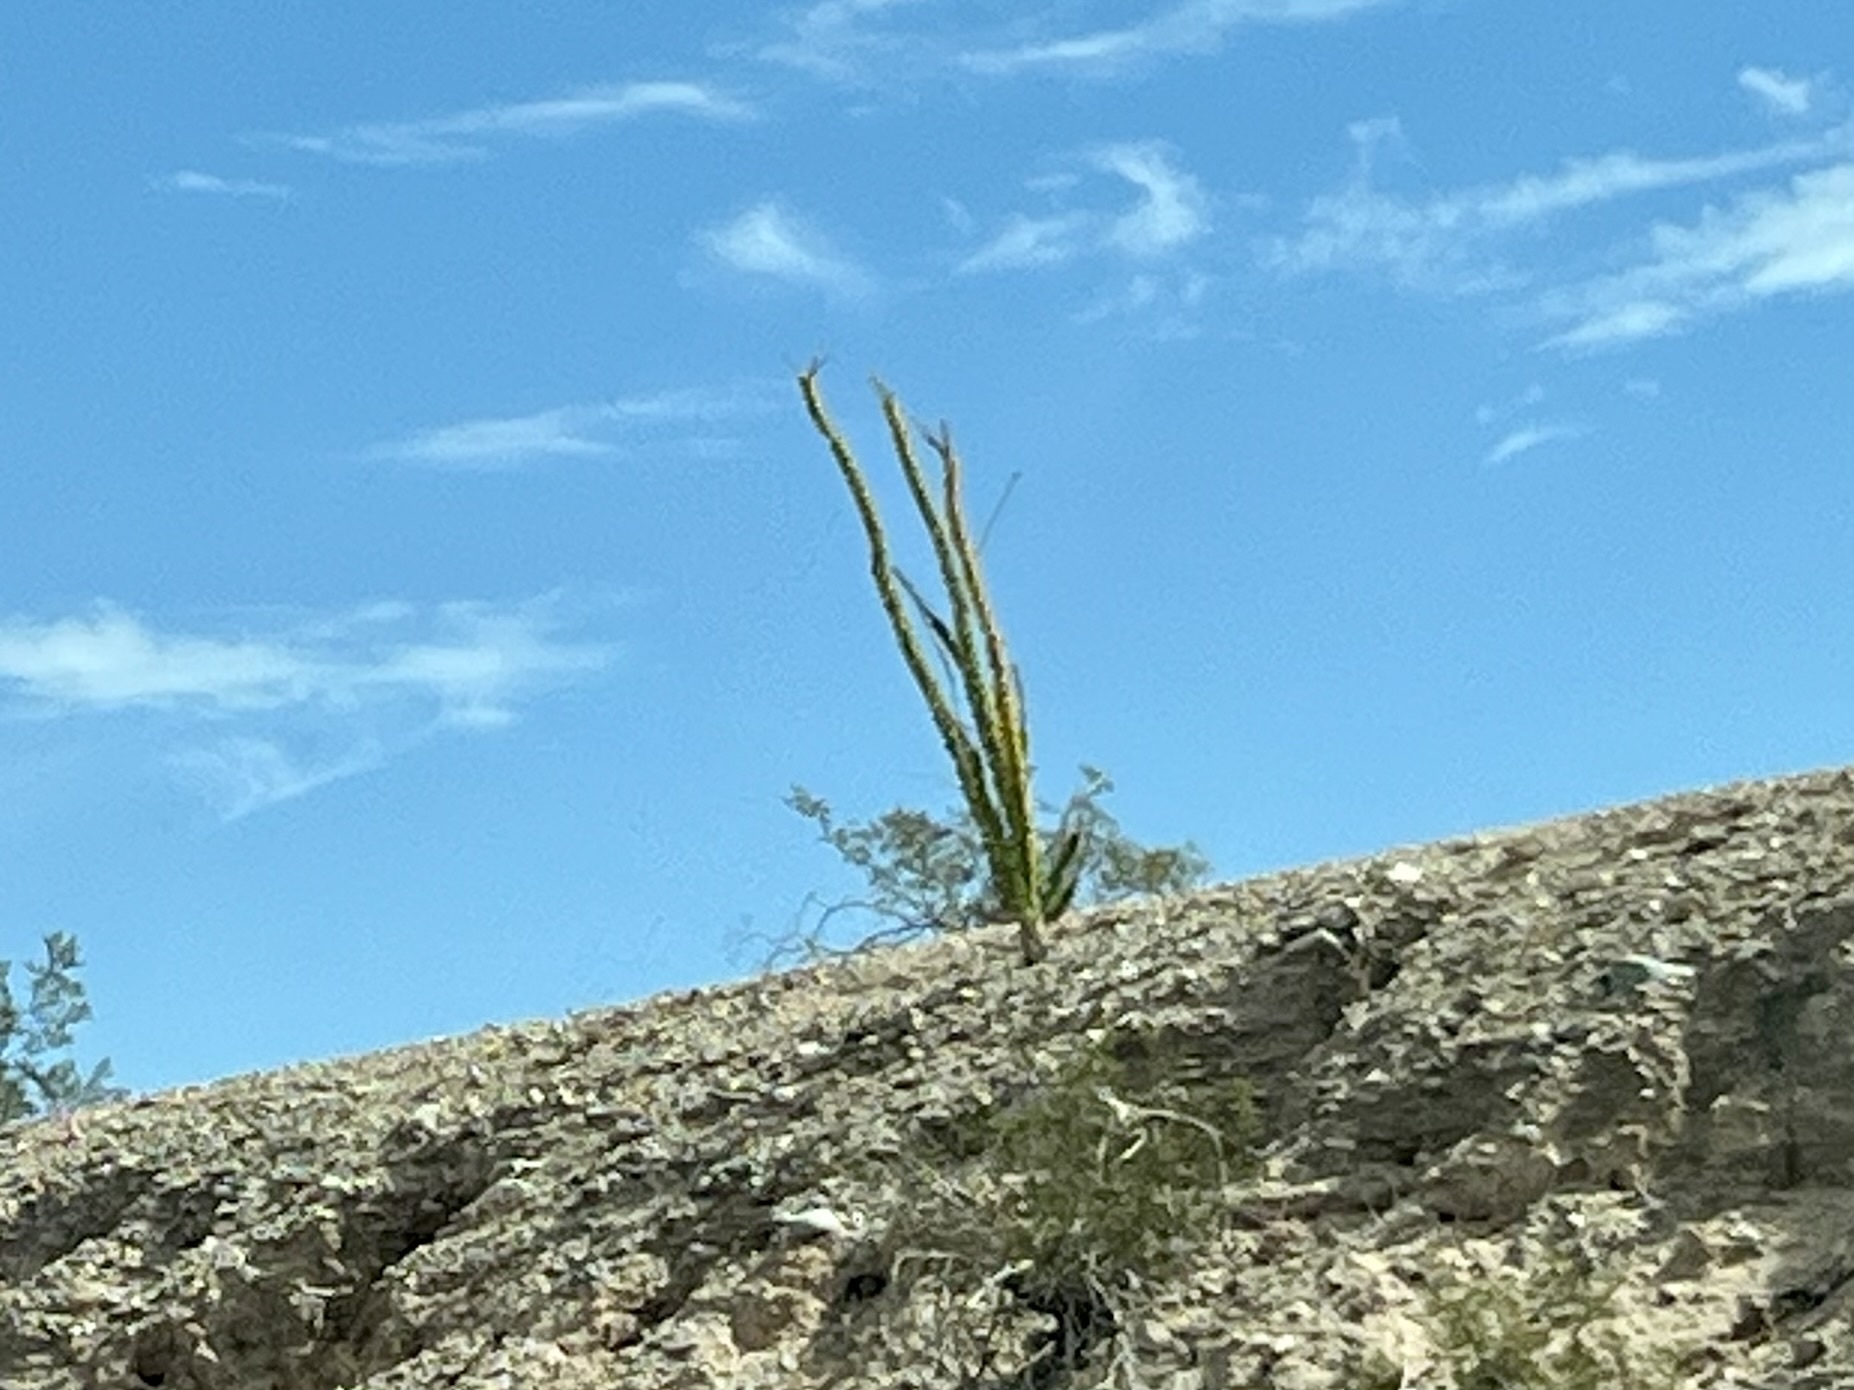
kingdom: Plantae
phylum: Tracheophyta
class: Magnoliopsida
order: Ericales
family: Fouquieriaceae
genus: Fouquieria
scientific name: Fouquieria splendens
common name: Vine-cactus
